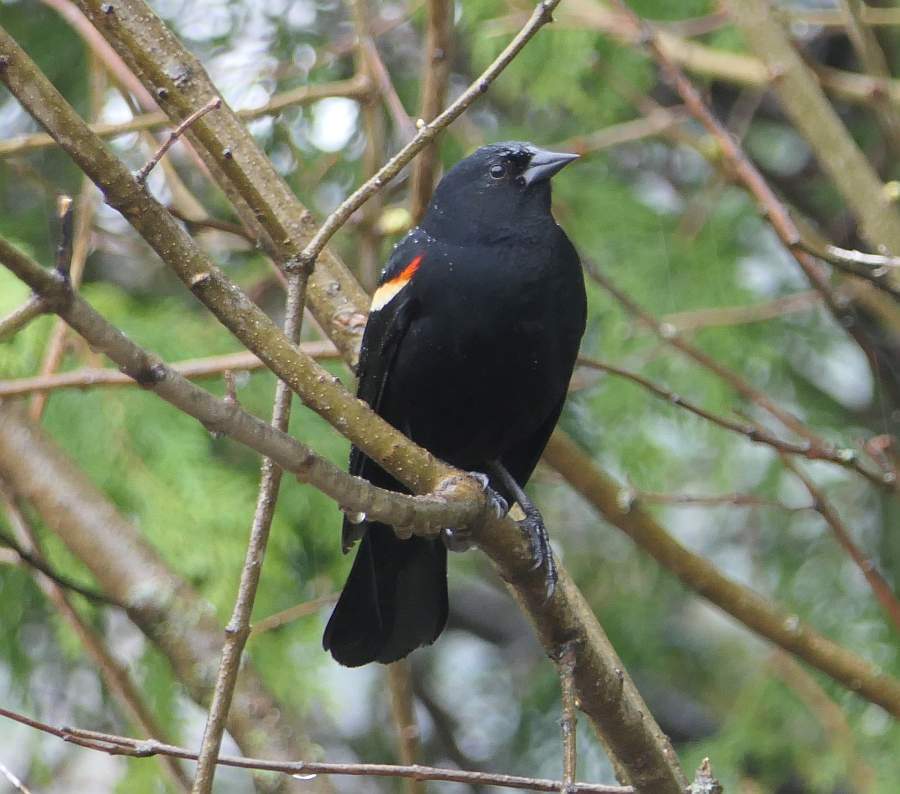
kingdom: Animalia
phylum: Chordata
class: Aves
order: Passeriformes
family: Icteridae
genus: Agelaius
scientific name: Agelaius phoeniceus
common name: Red-winged blackbird
